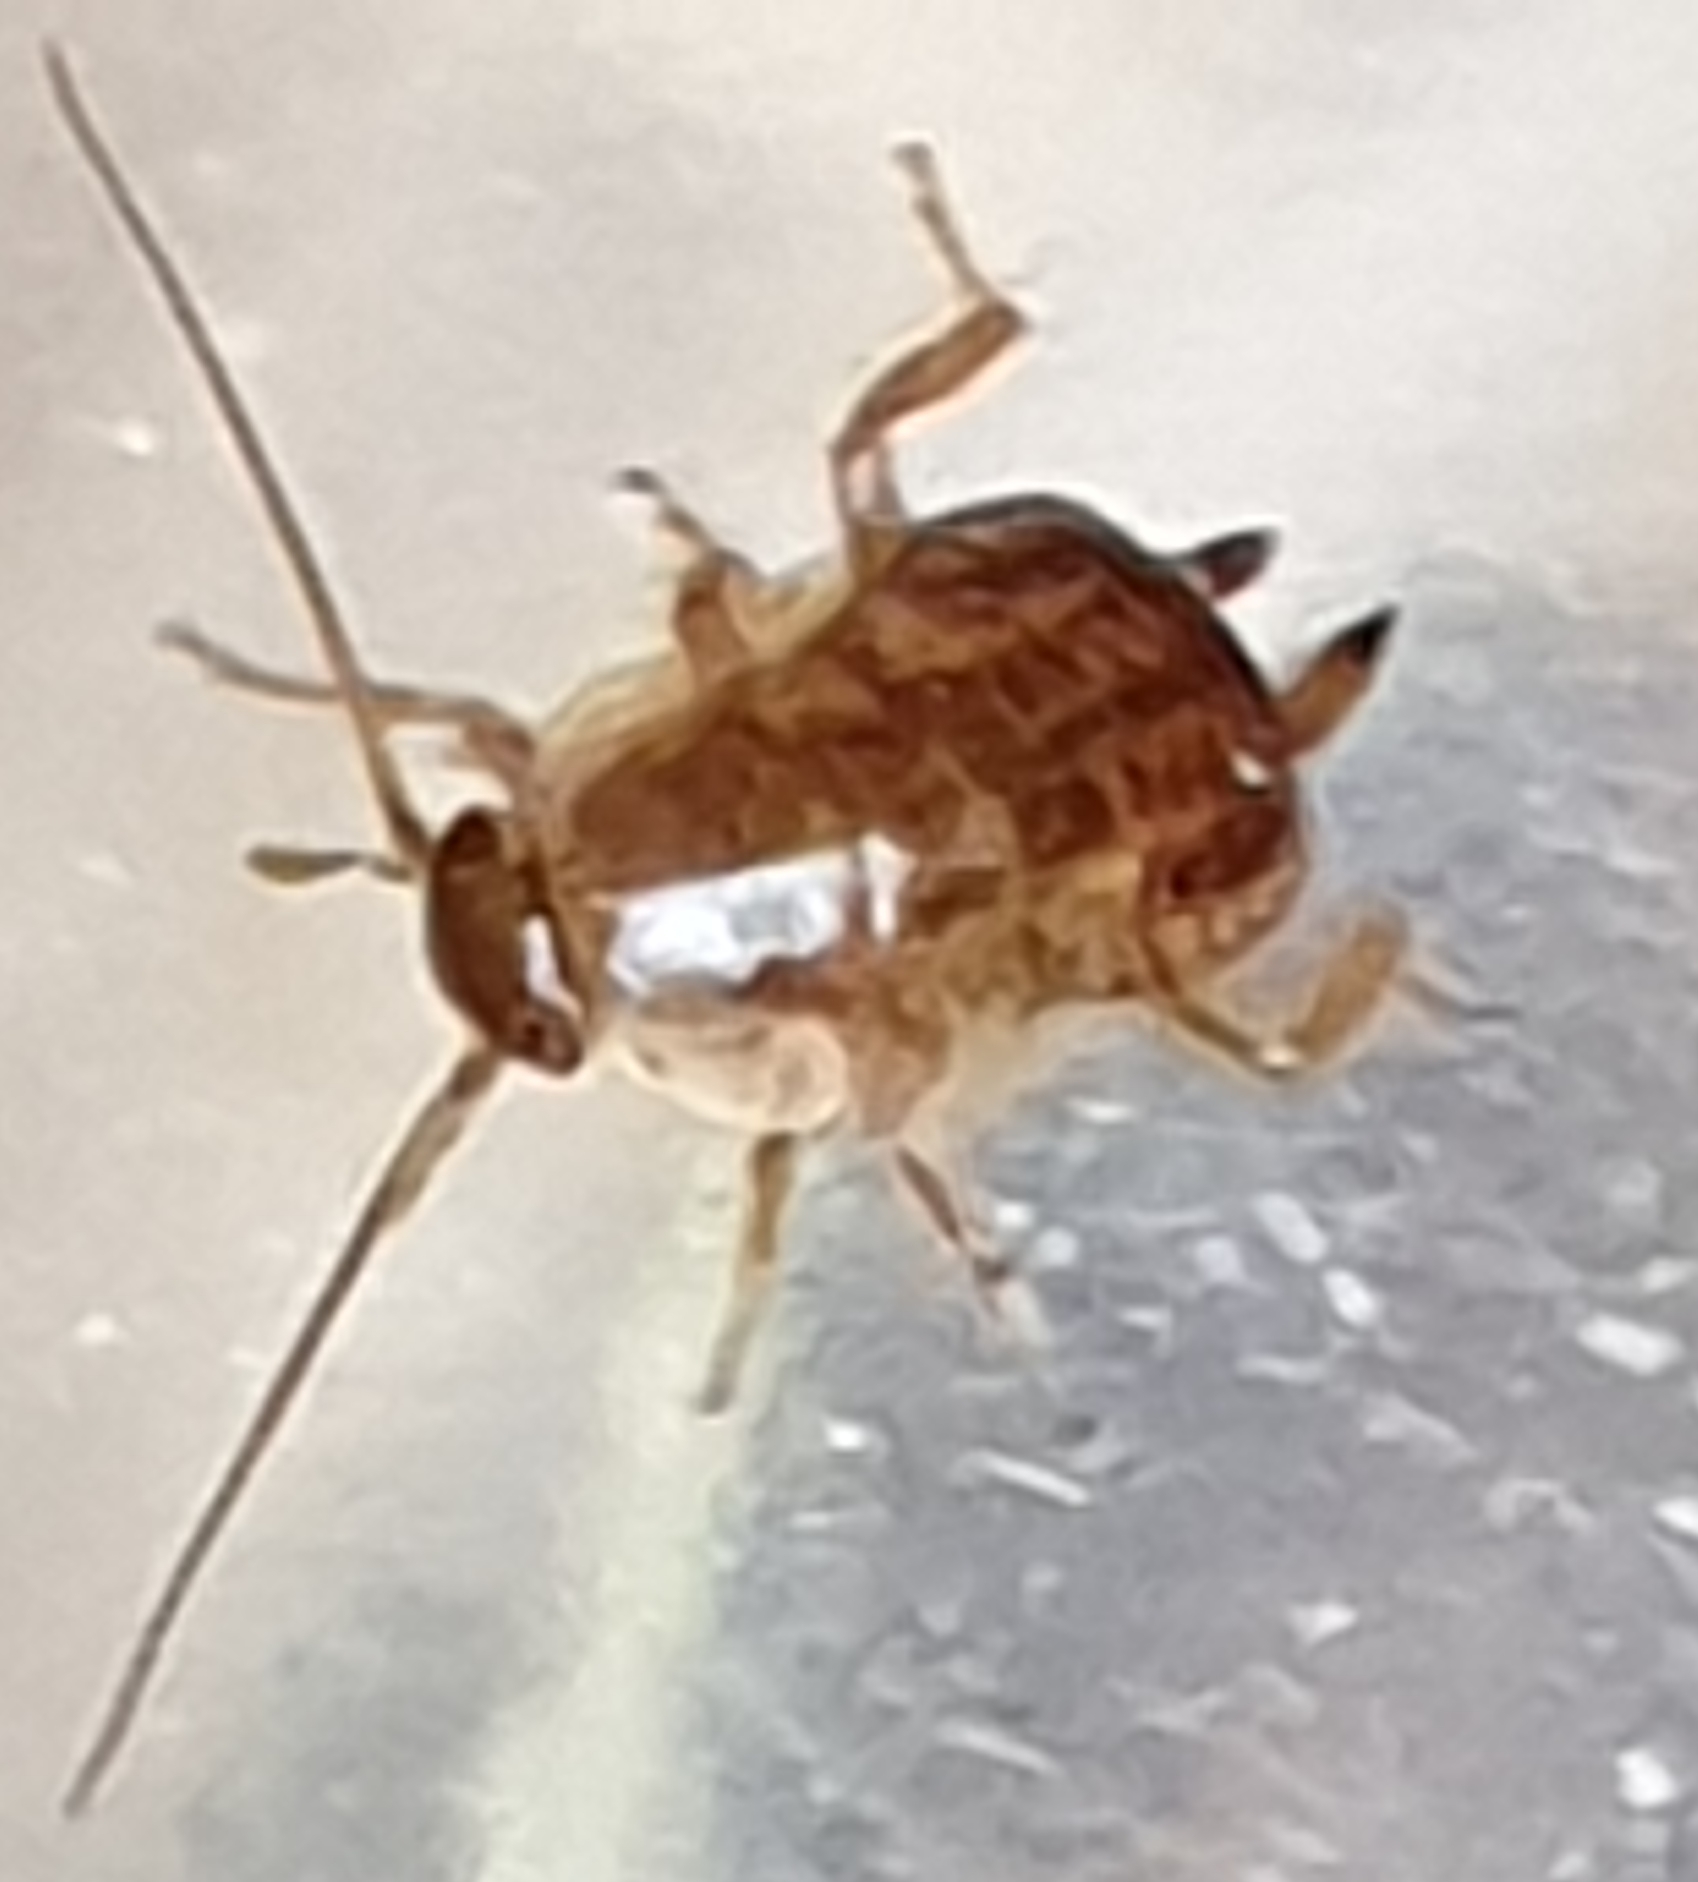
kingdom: Animalia
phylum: Arthropoda
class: Insecta
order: Blattodea
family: Ectobiidae
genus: Ectobius
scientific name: Ectobius lapponicus
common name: Dusky cockroach
